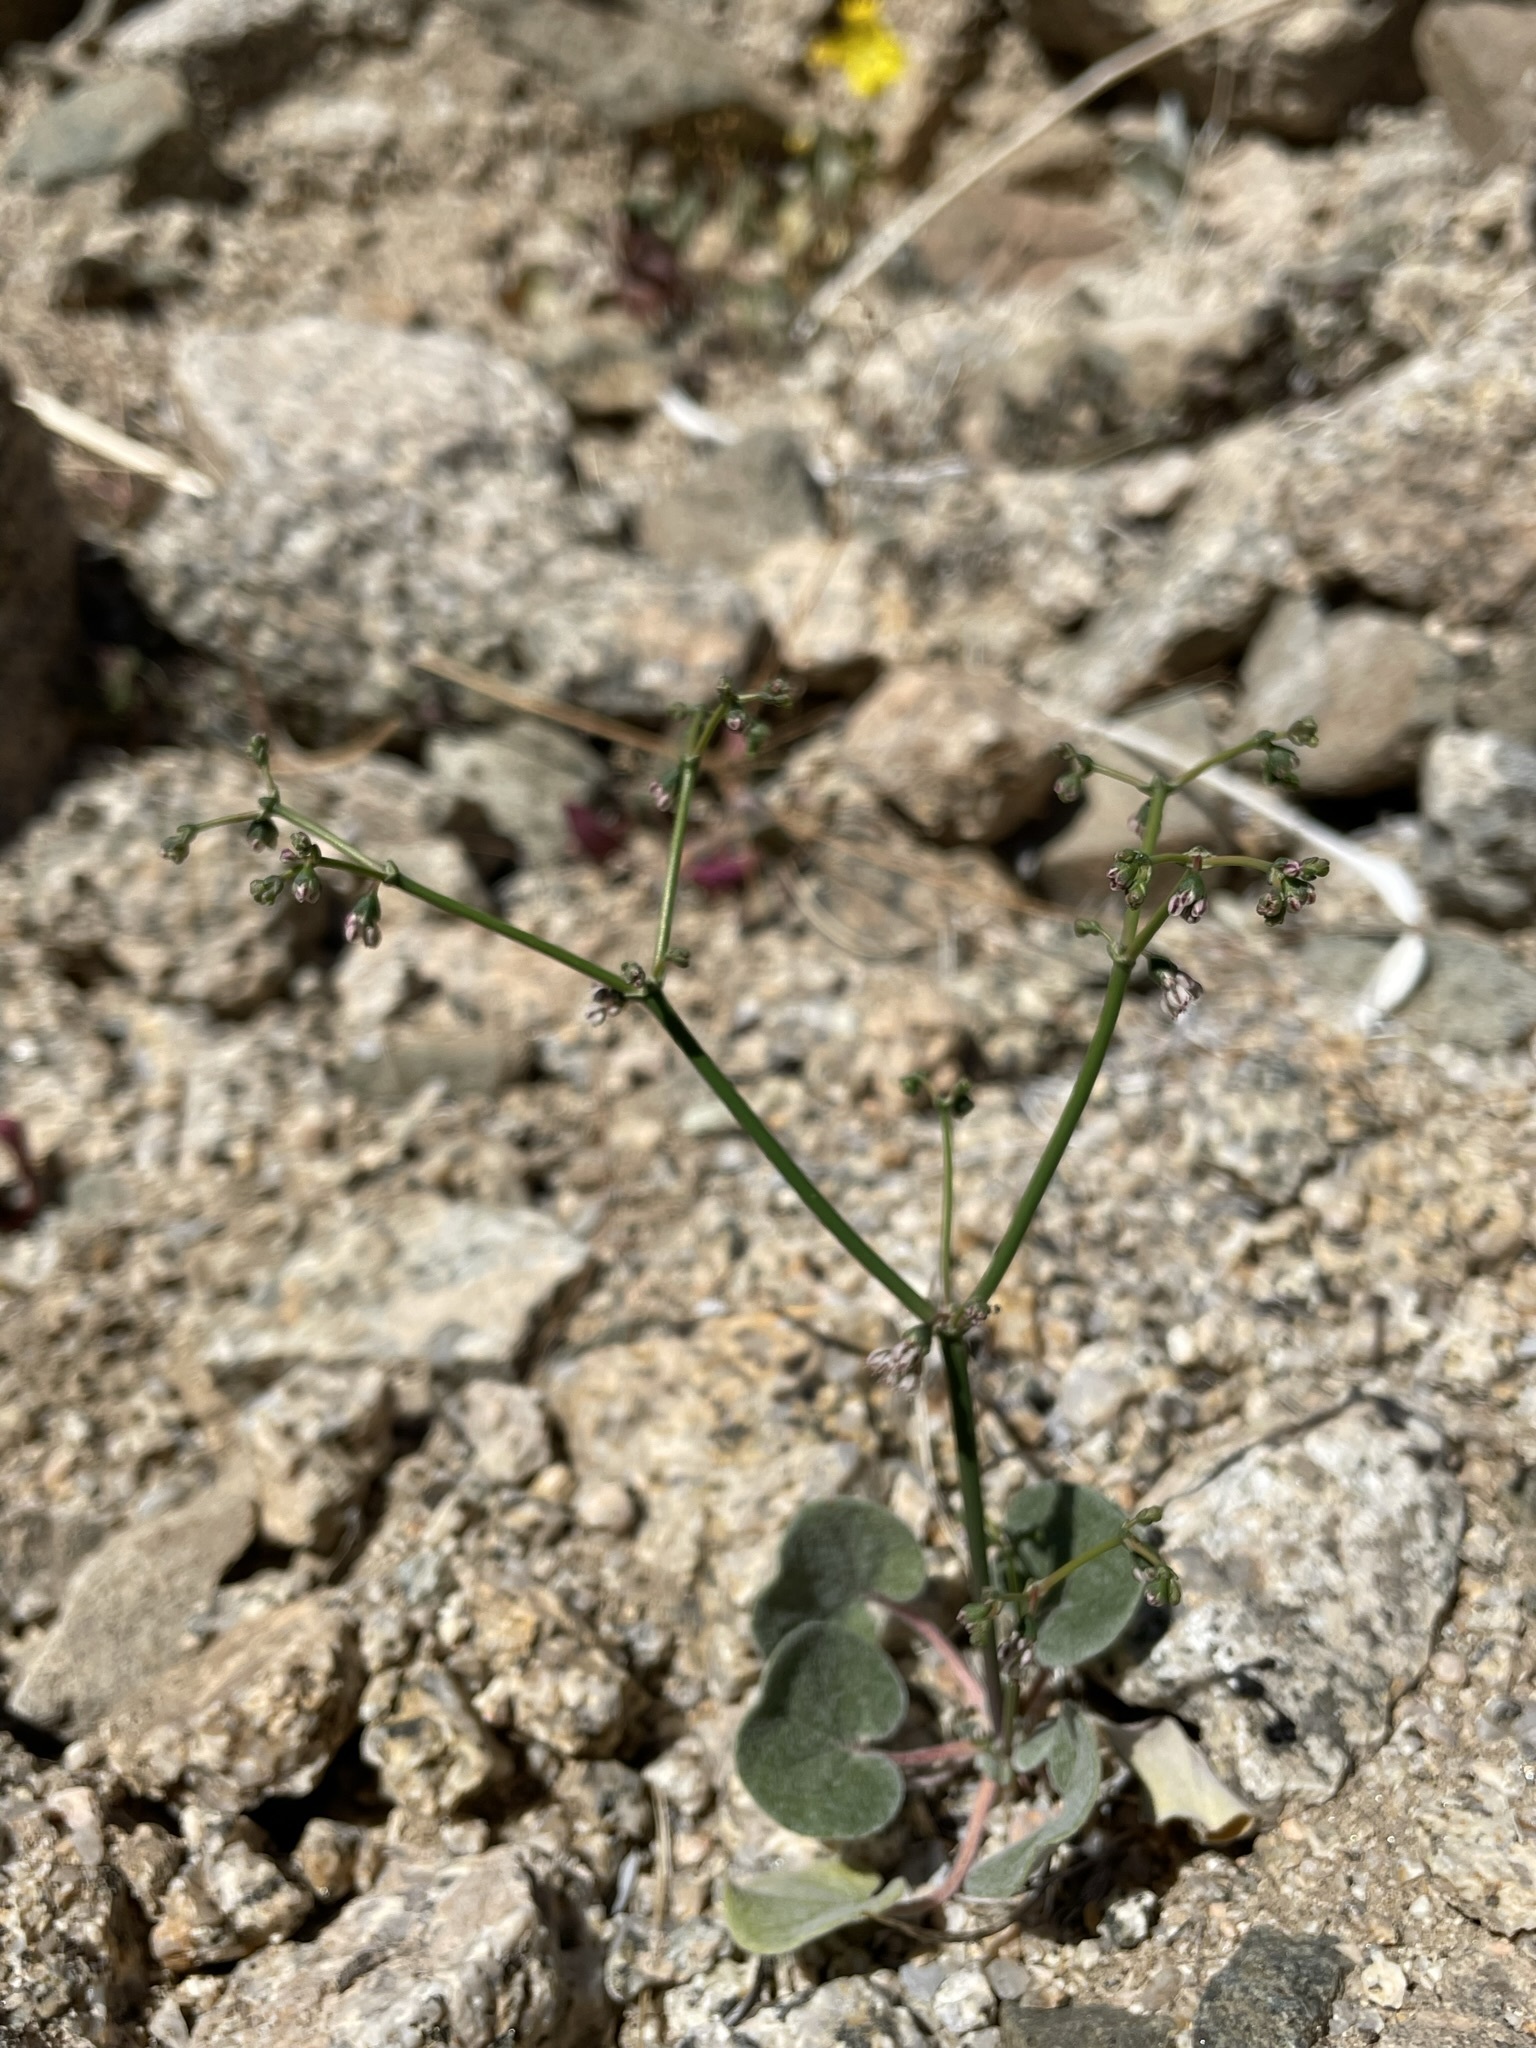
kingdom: Plantae
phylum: Tracheophyta
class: Magnoliopsida
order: Caryophyllales
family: Polygonaceae
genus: Eriogonum
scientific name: Eriogonum deflexum
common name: Skeleton-weed
